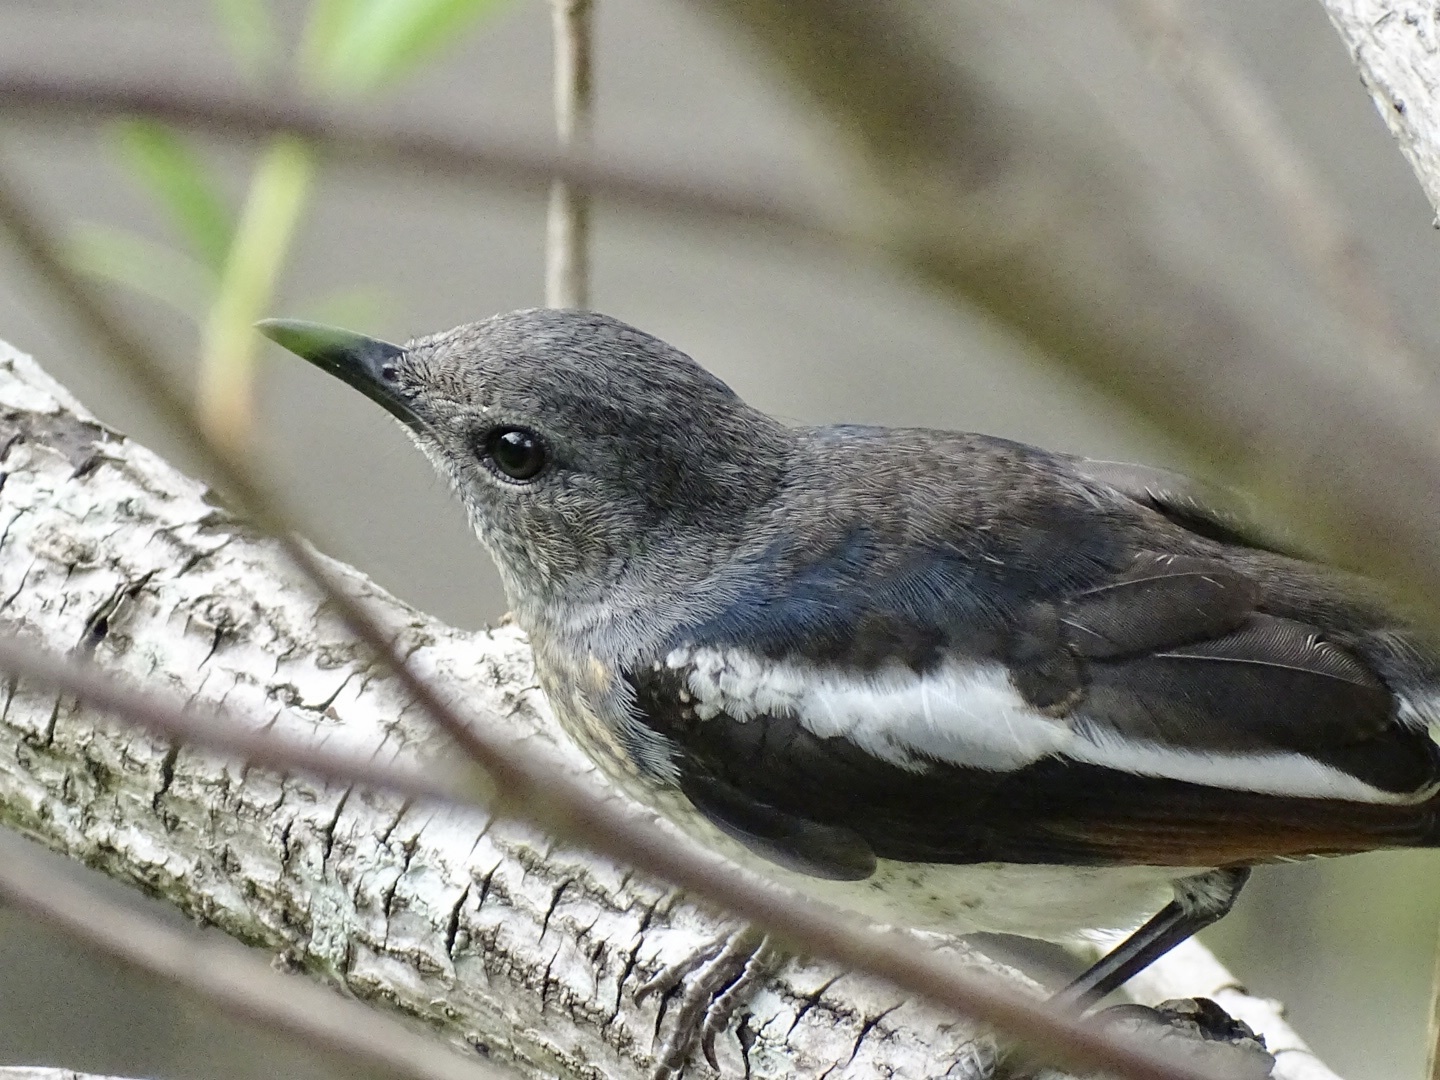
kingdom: Animalia
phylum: Chordata
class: Aves
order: Passeriformes
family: Muscicapidae
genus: Copsychus
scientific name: Copsychus saularis
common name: Oriental magpie-robin
